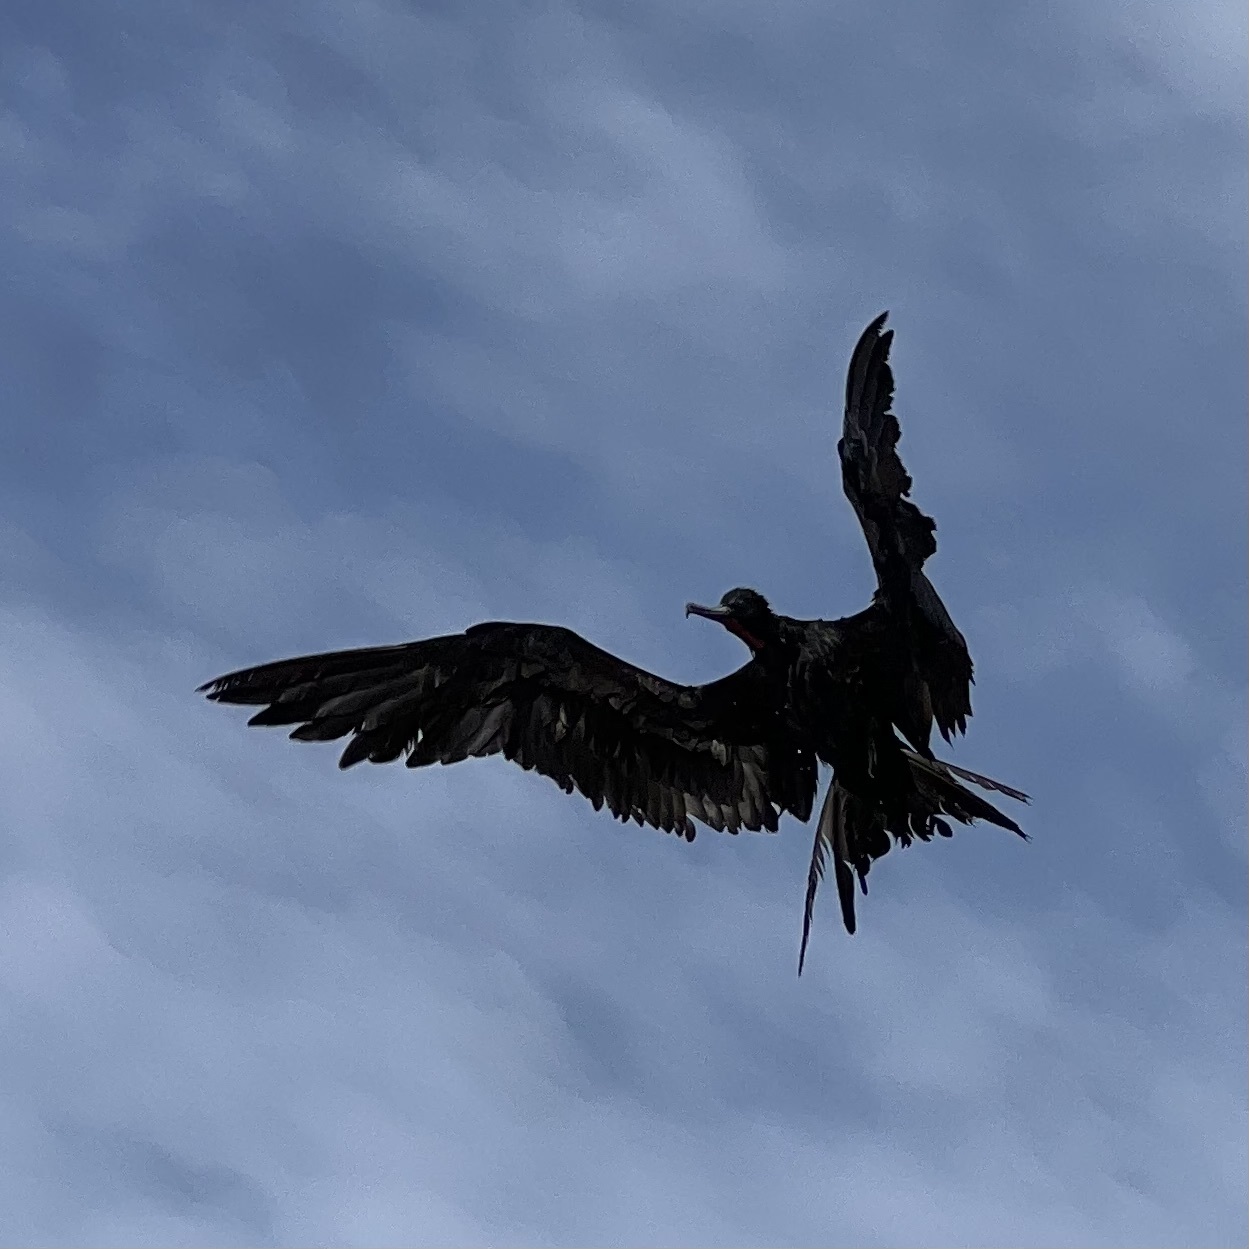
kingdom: Animalia
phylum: Chordata
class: Aves
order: Suliformes
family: Fregatidae
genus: Fregata
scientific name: Fregata magnificens
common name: Magnificent frigatebird
